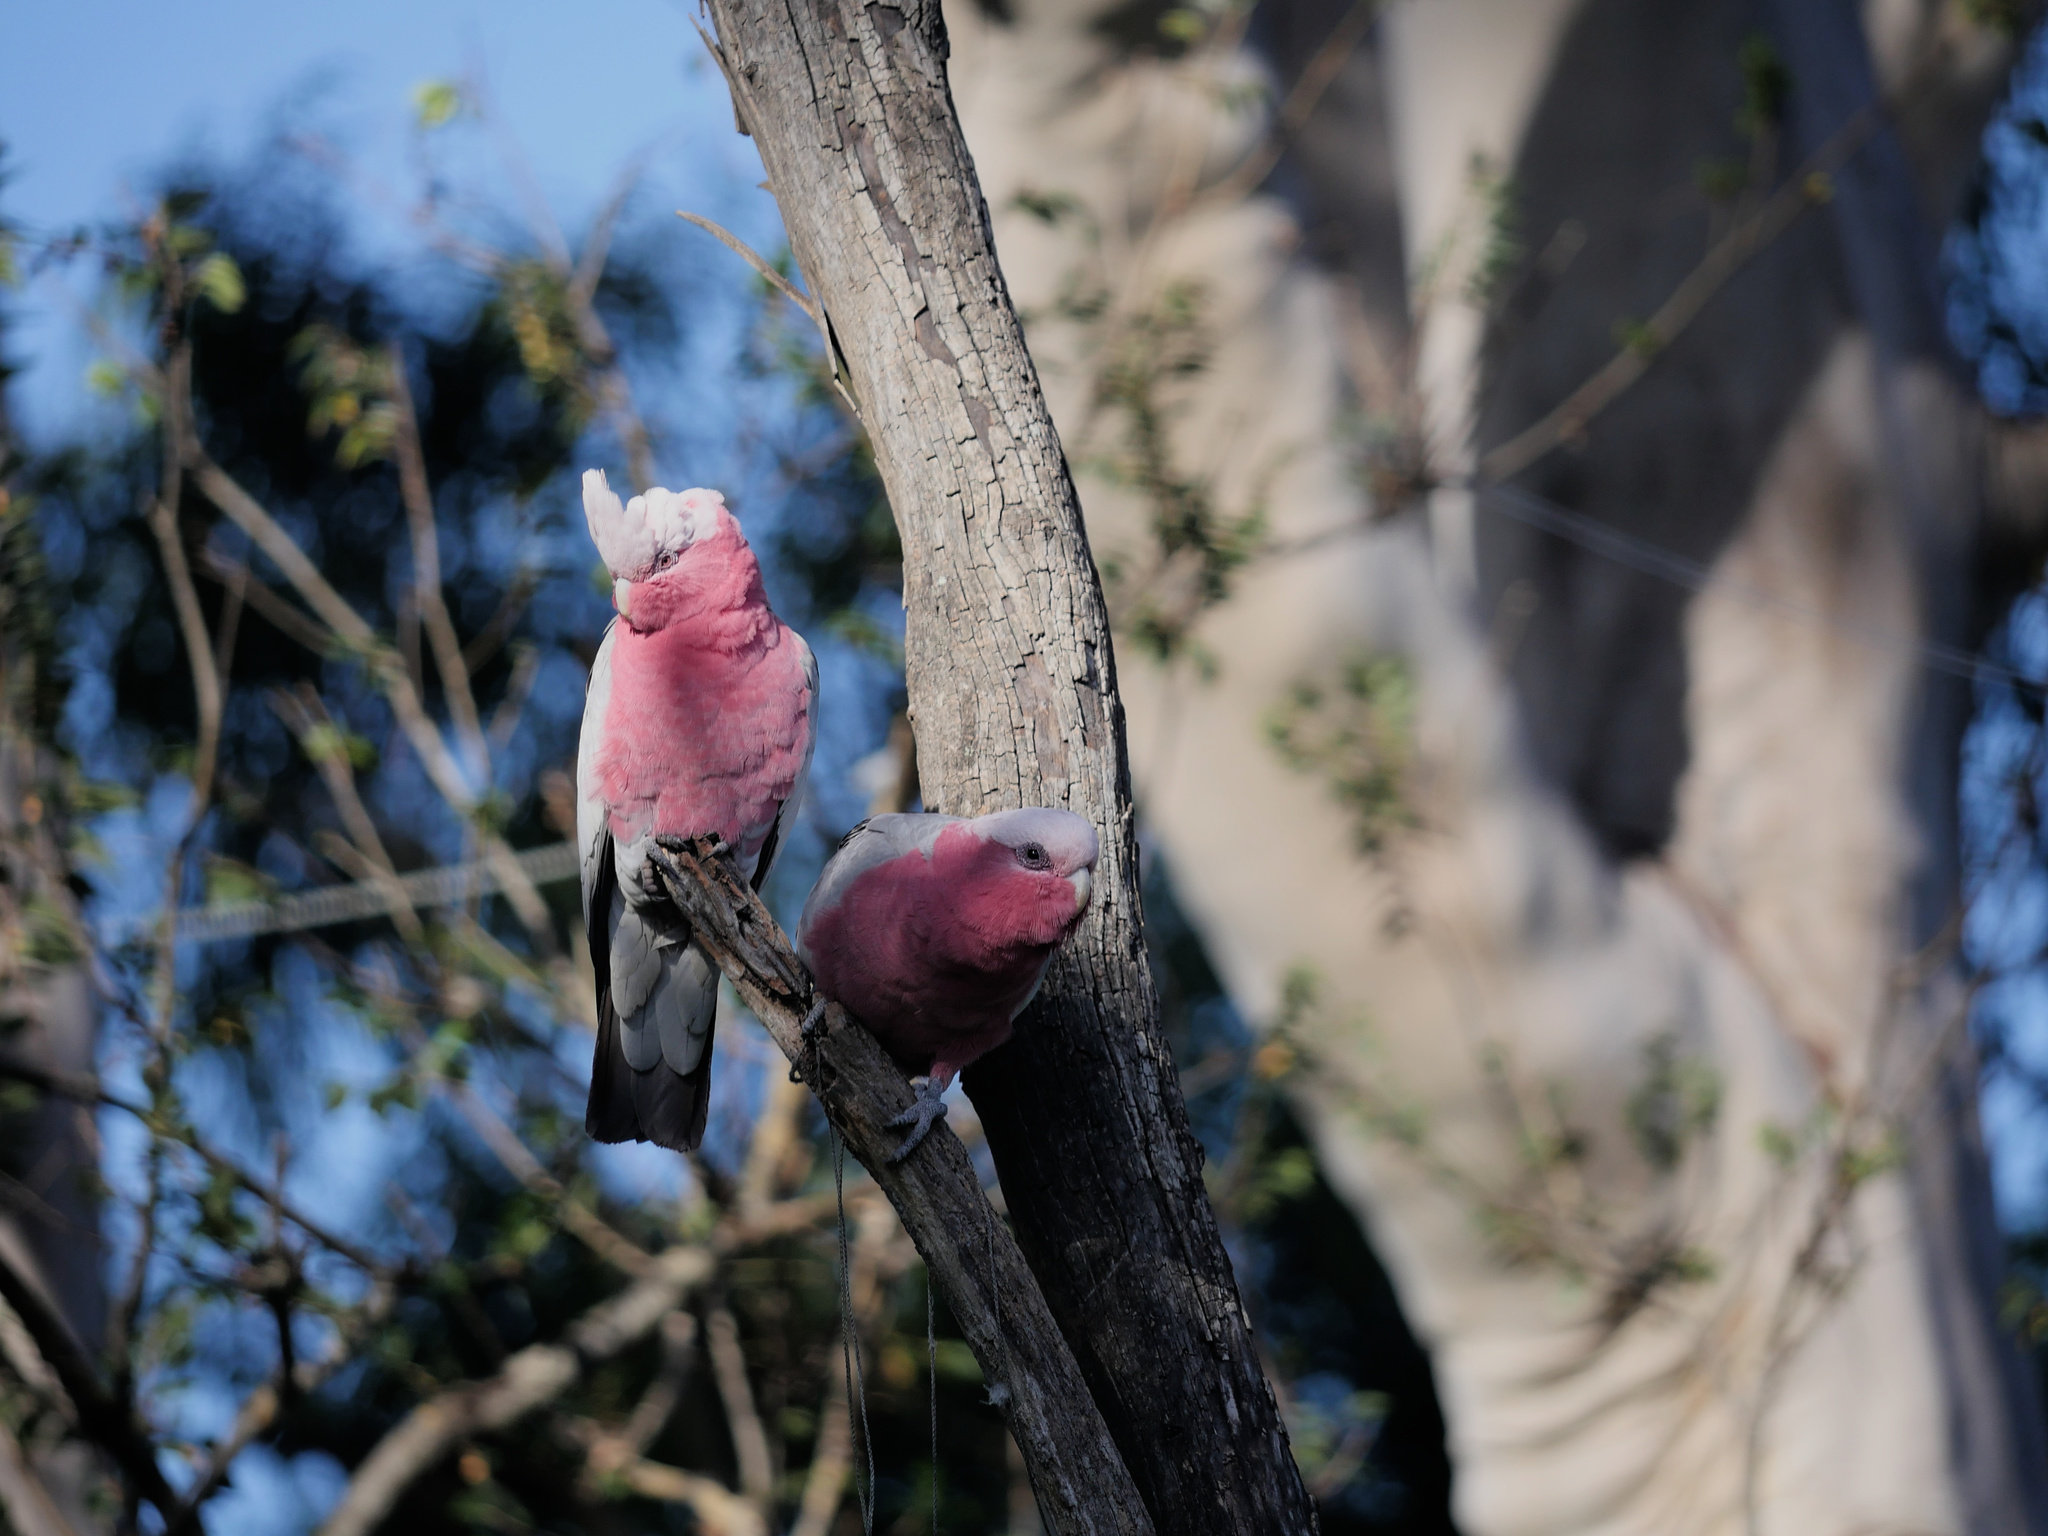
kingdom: Animalia
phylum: Chordata
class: Aves
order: Psittaciformes
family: Psittacidae
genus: Eolophus
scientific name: Eolophus roseicapilla
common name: Galah
